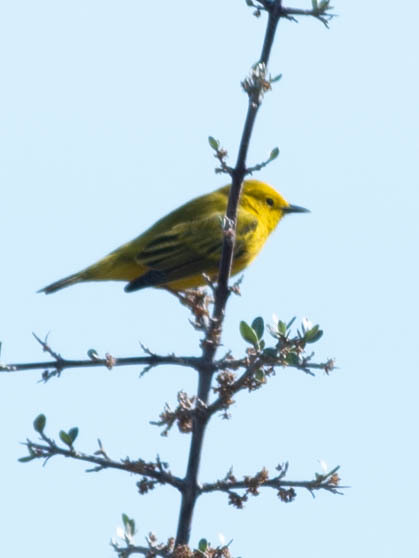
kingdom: Animalia
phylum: Chordata
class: Aves
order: Passeriformes
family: Parulidae
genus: Setophaga
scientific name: Setophaga petechia
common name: Yellow warbler
